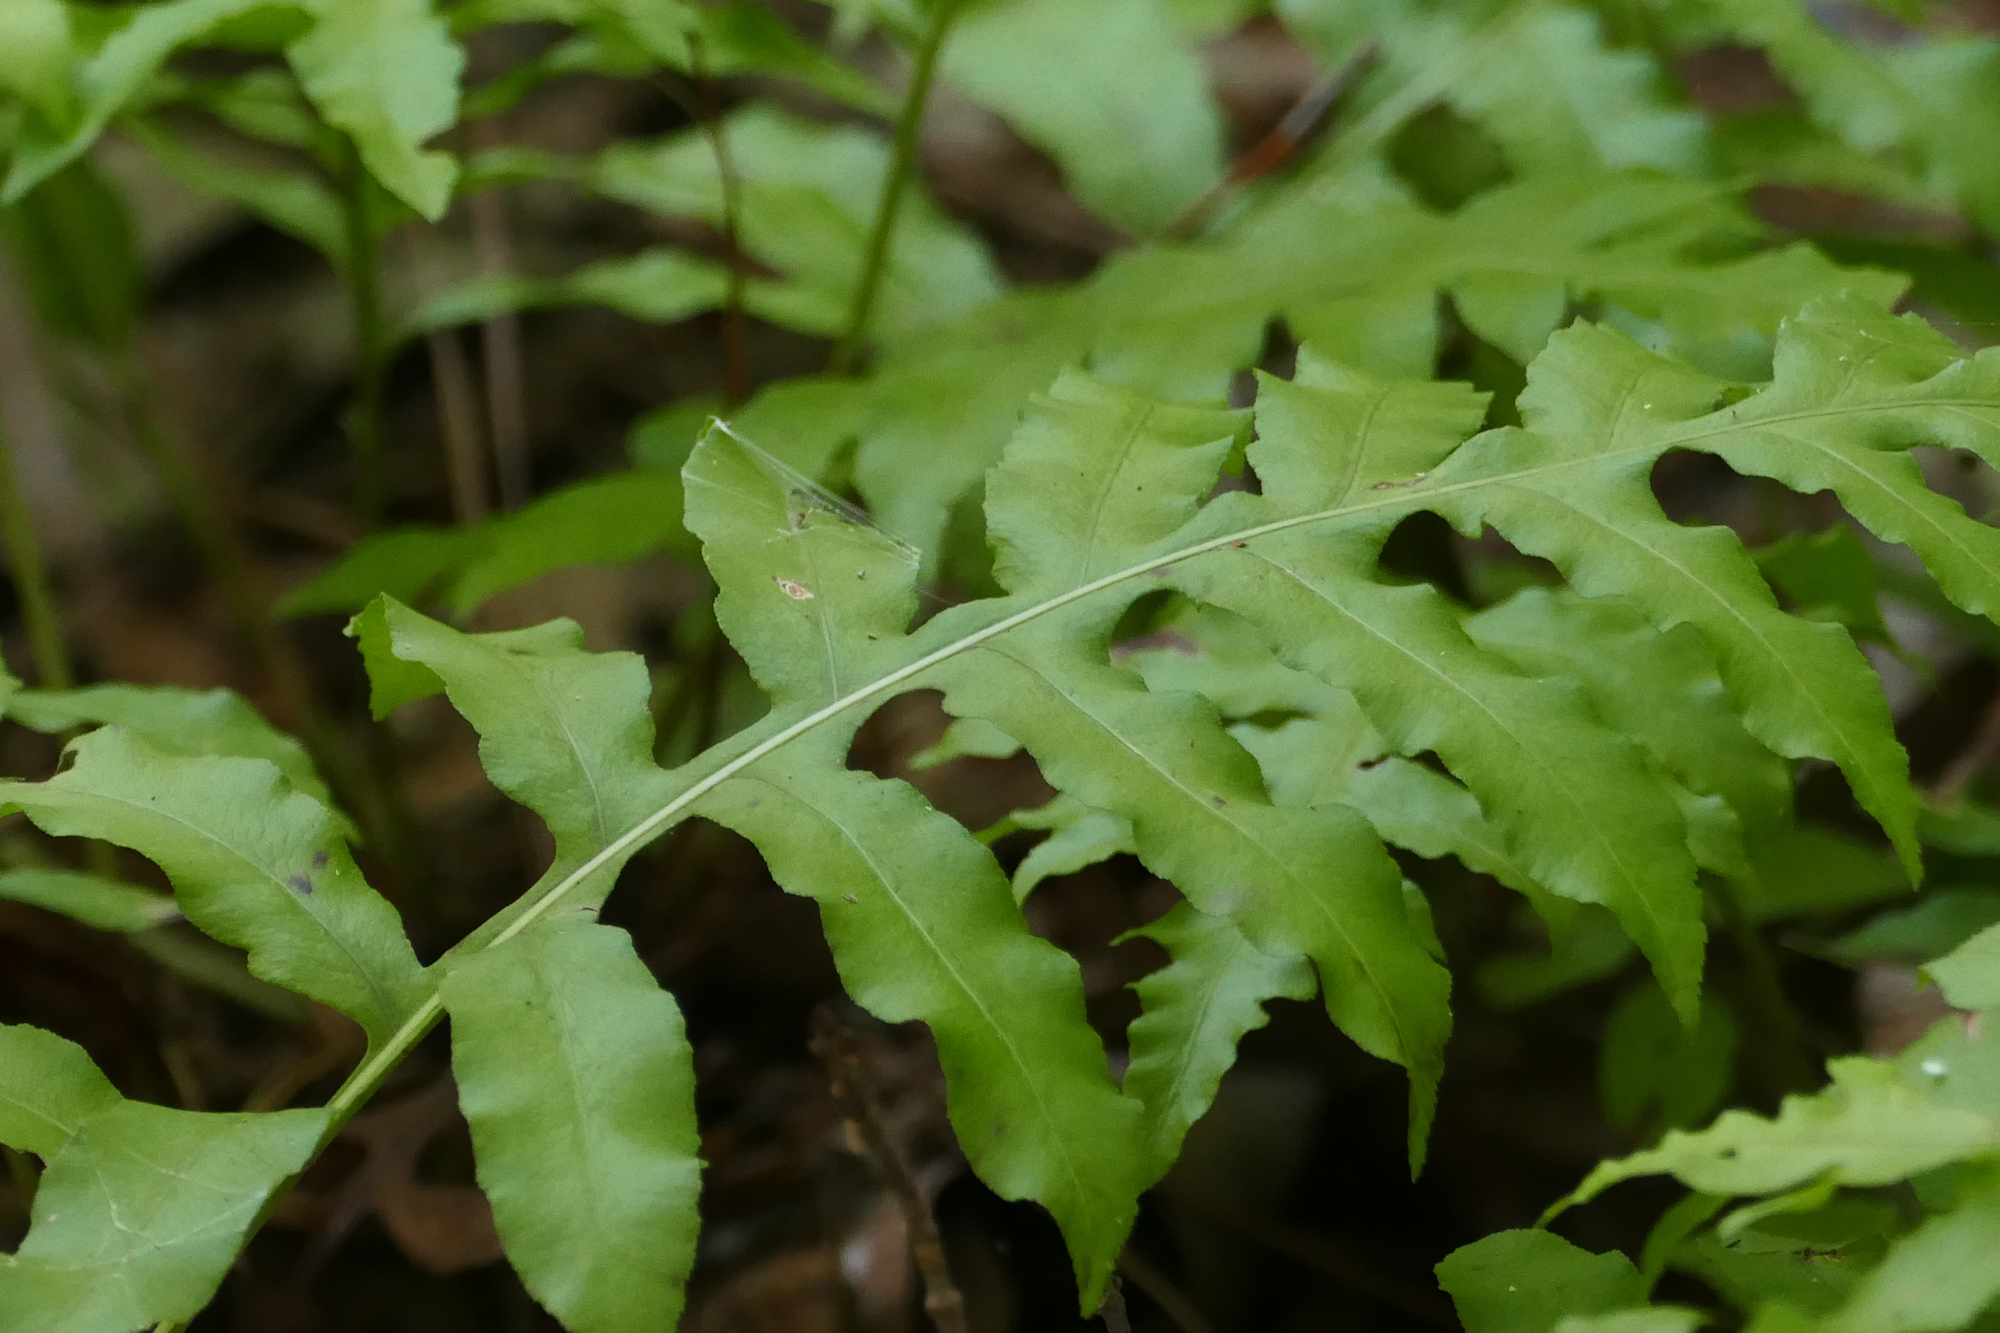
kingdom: Plantae
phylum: Tracheophyta
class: Polypodiopsida
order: Polypodiales
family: Blechnaceae
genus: Lorinseria
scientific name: Lorinseria areolata
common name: Dwarf chain fern
